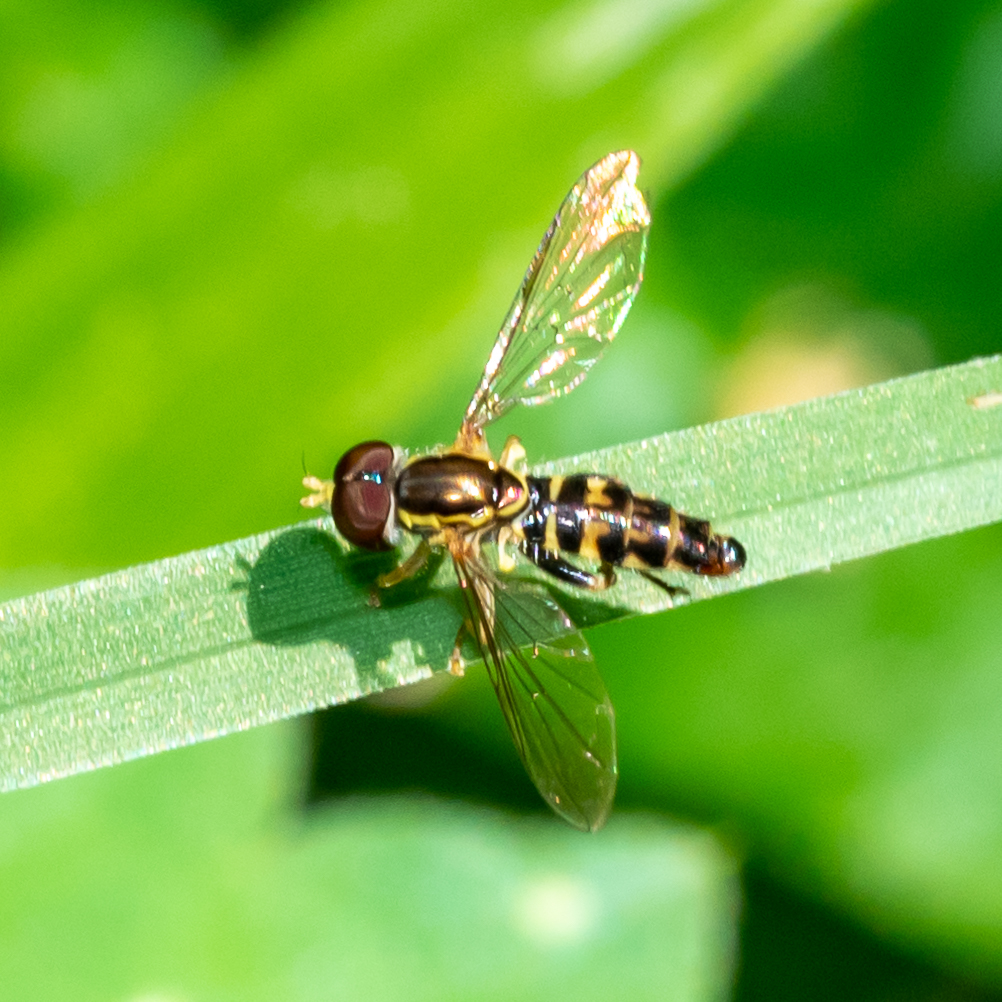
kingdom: Animalia
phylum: Arthropoda
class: Insecta
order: Diptera
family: Syrphidae
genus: Toxomerus
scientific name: Toxomerus geminatus
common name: Eastern calligrapher
